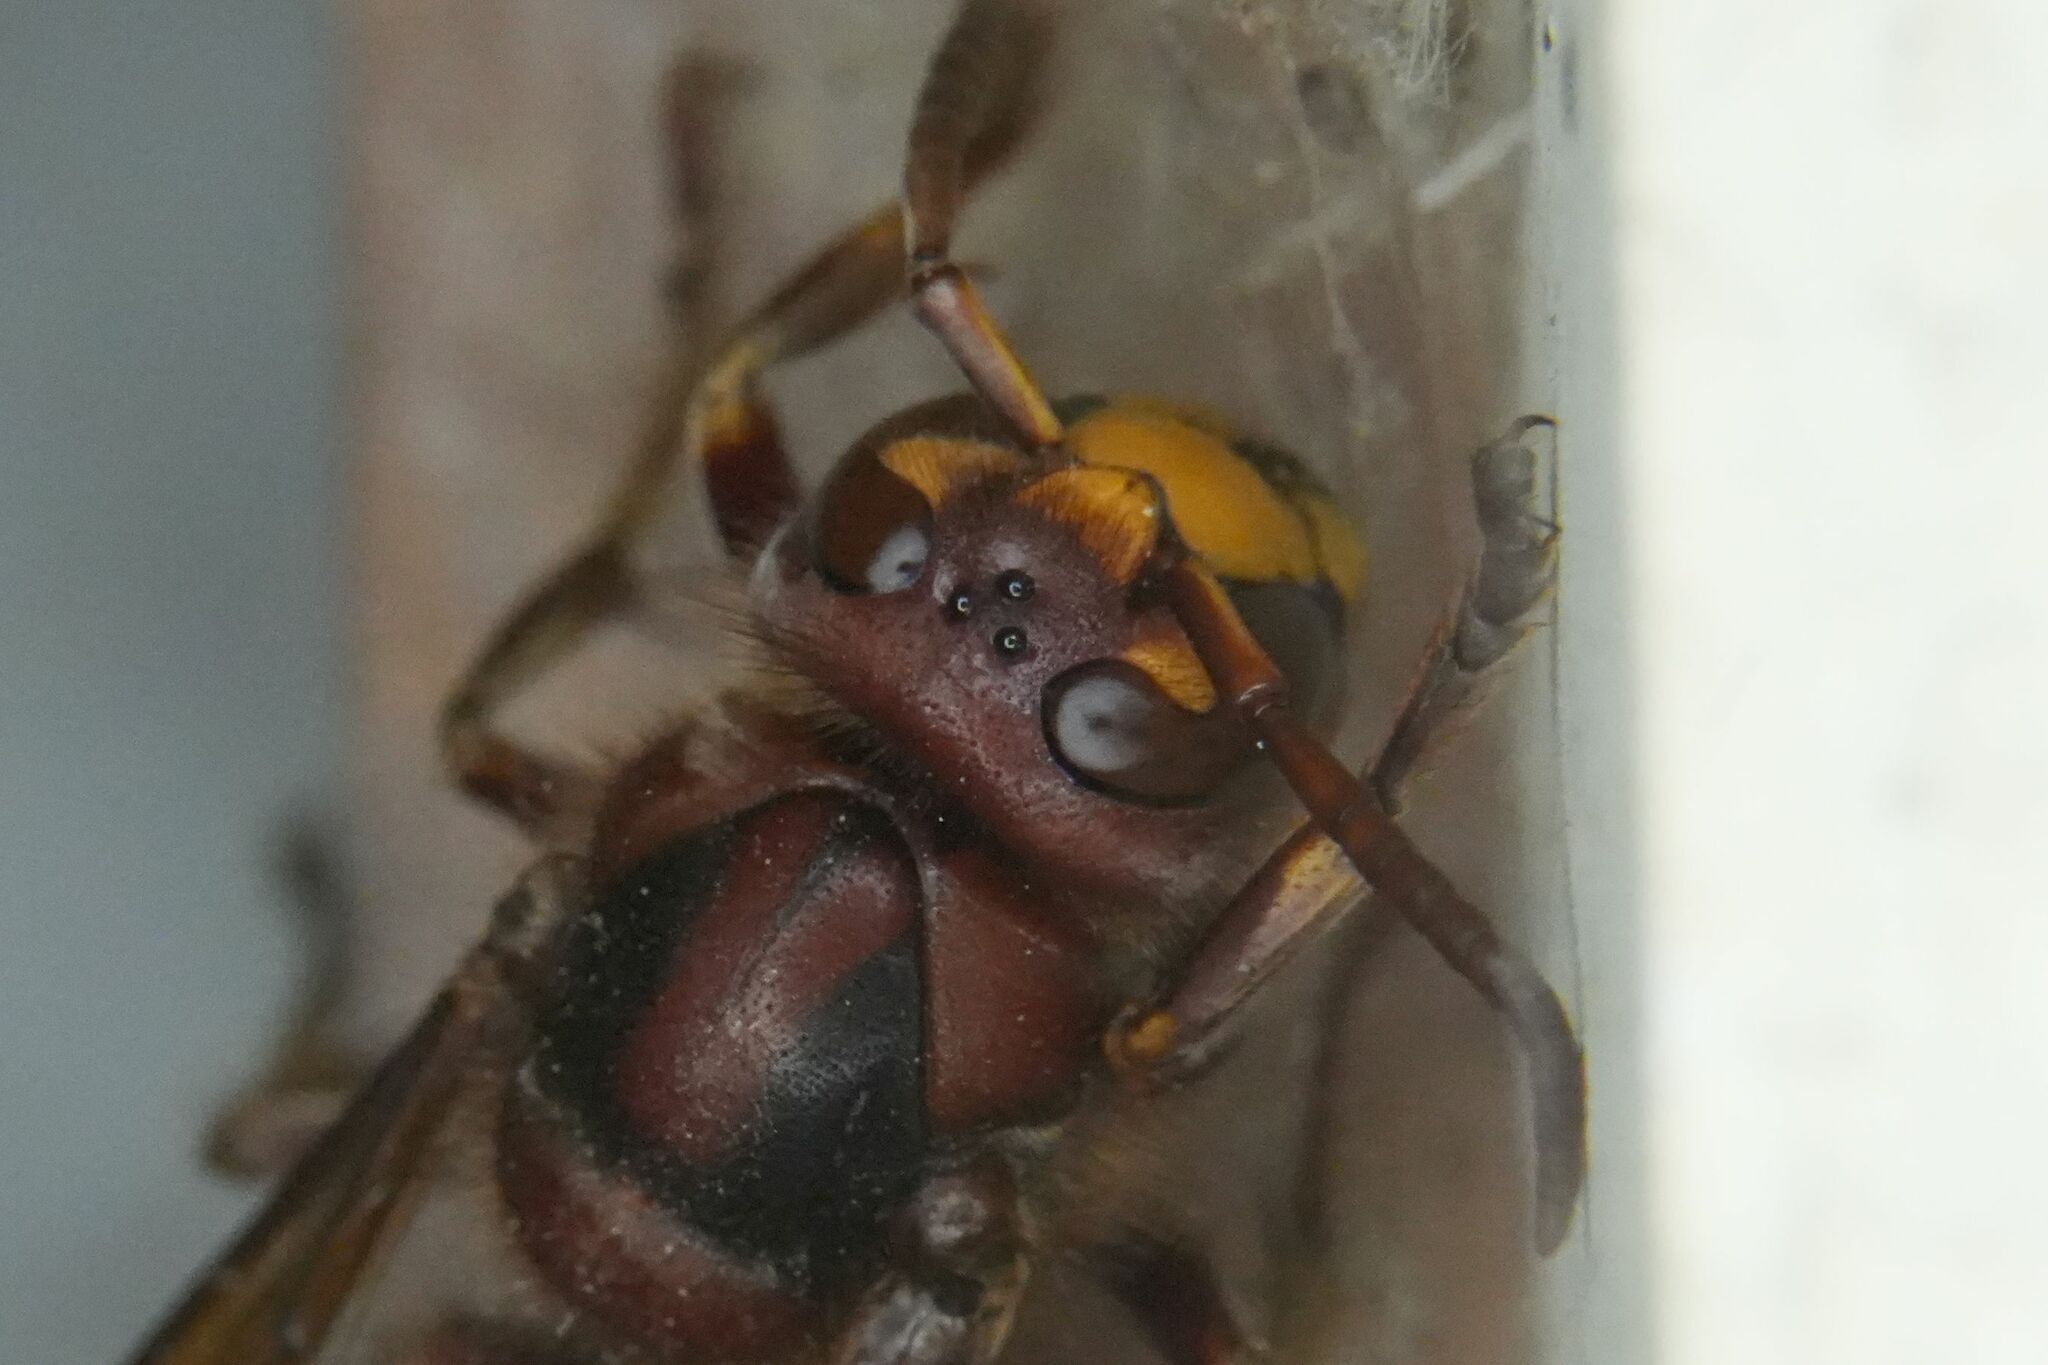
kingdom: Animalia
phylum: Arthropoda
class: Insecta
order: Hymenoptera
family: Vespidae
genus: Vespa
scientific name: Vespa crabro
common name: Hornet
